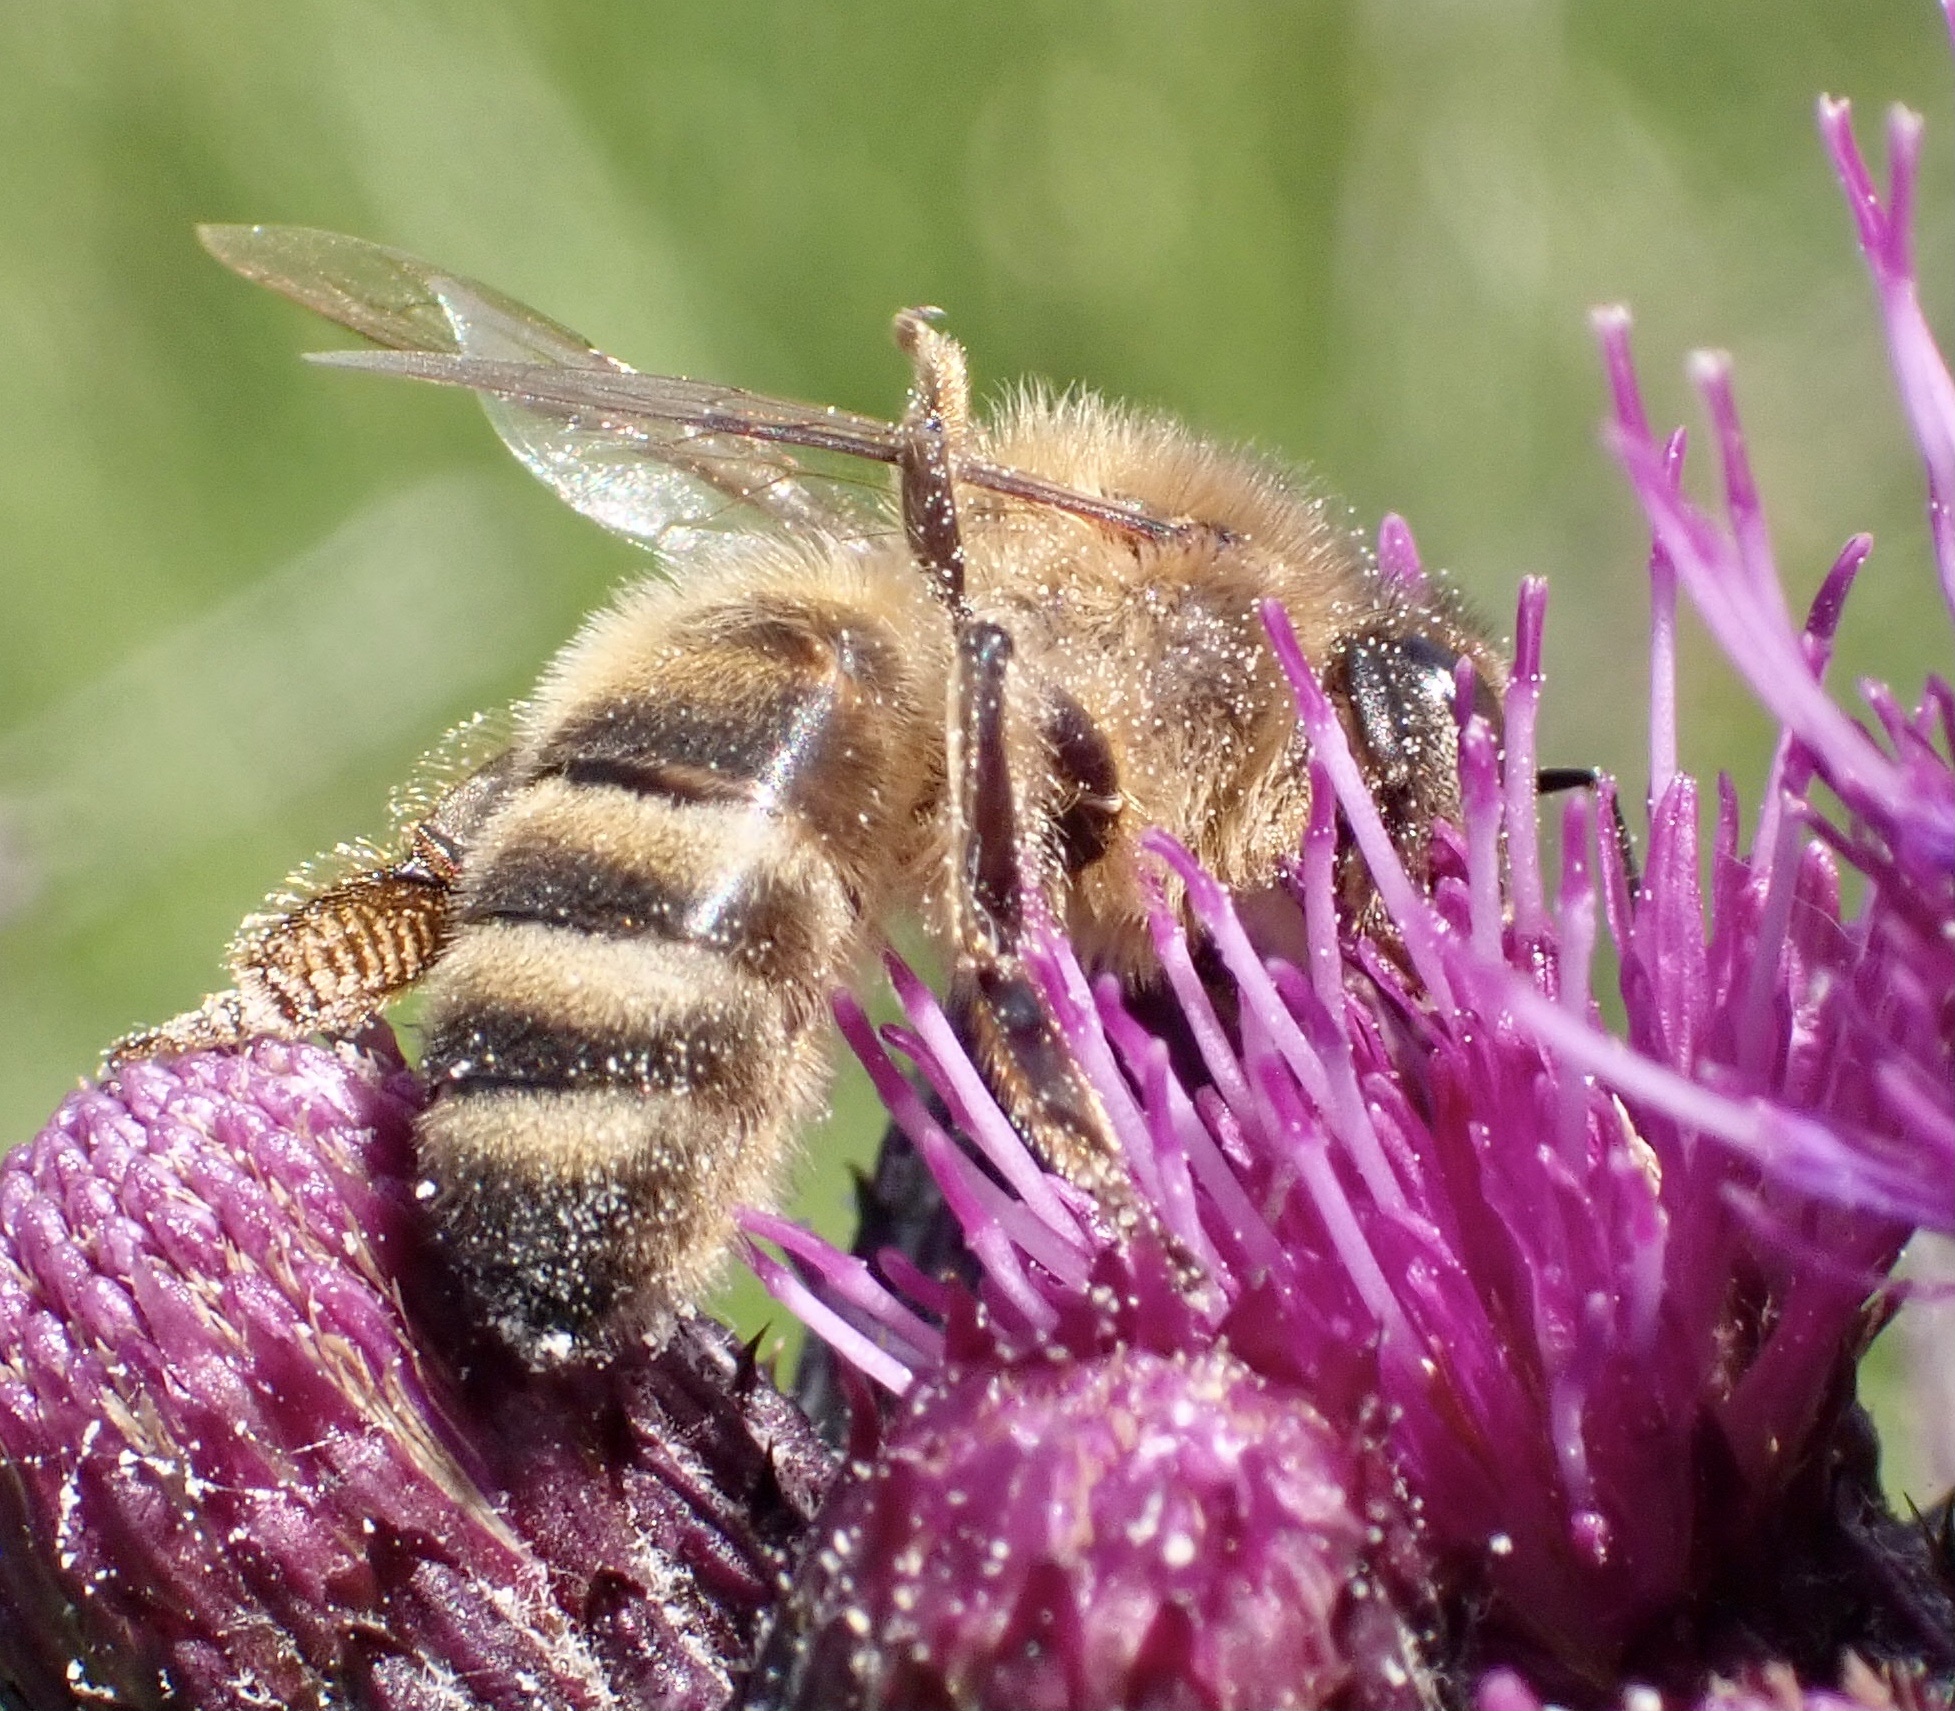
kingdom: Animalia
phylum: Arthropoda
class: Insecta
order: Hymenoptera
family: Apidae
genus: Apis
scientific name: Apis mellifera
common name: Honey bee
